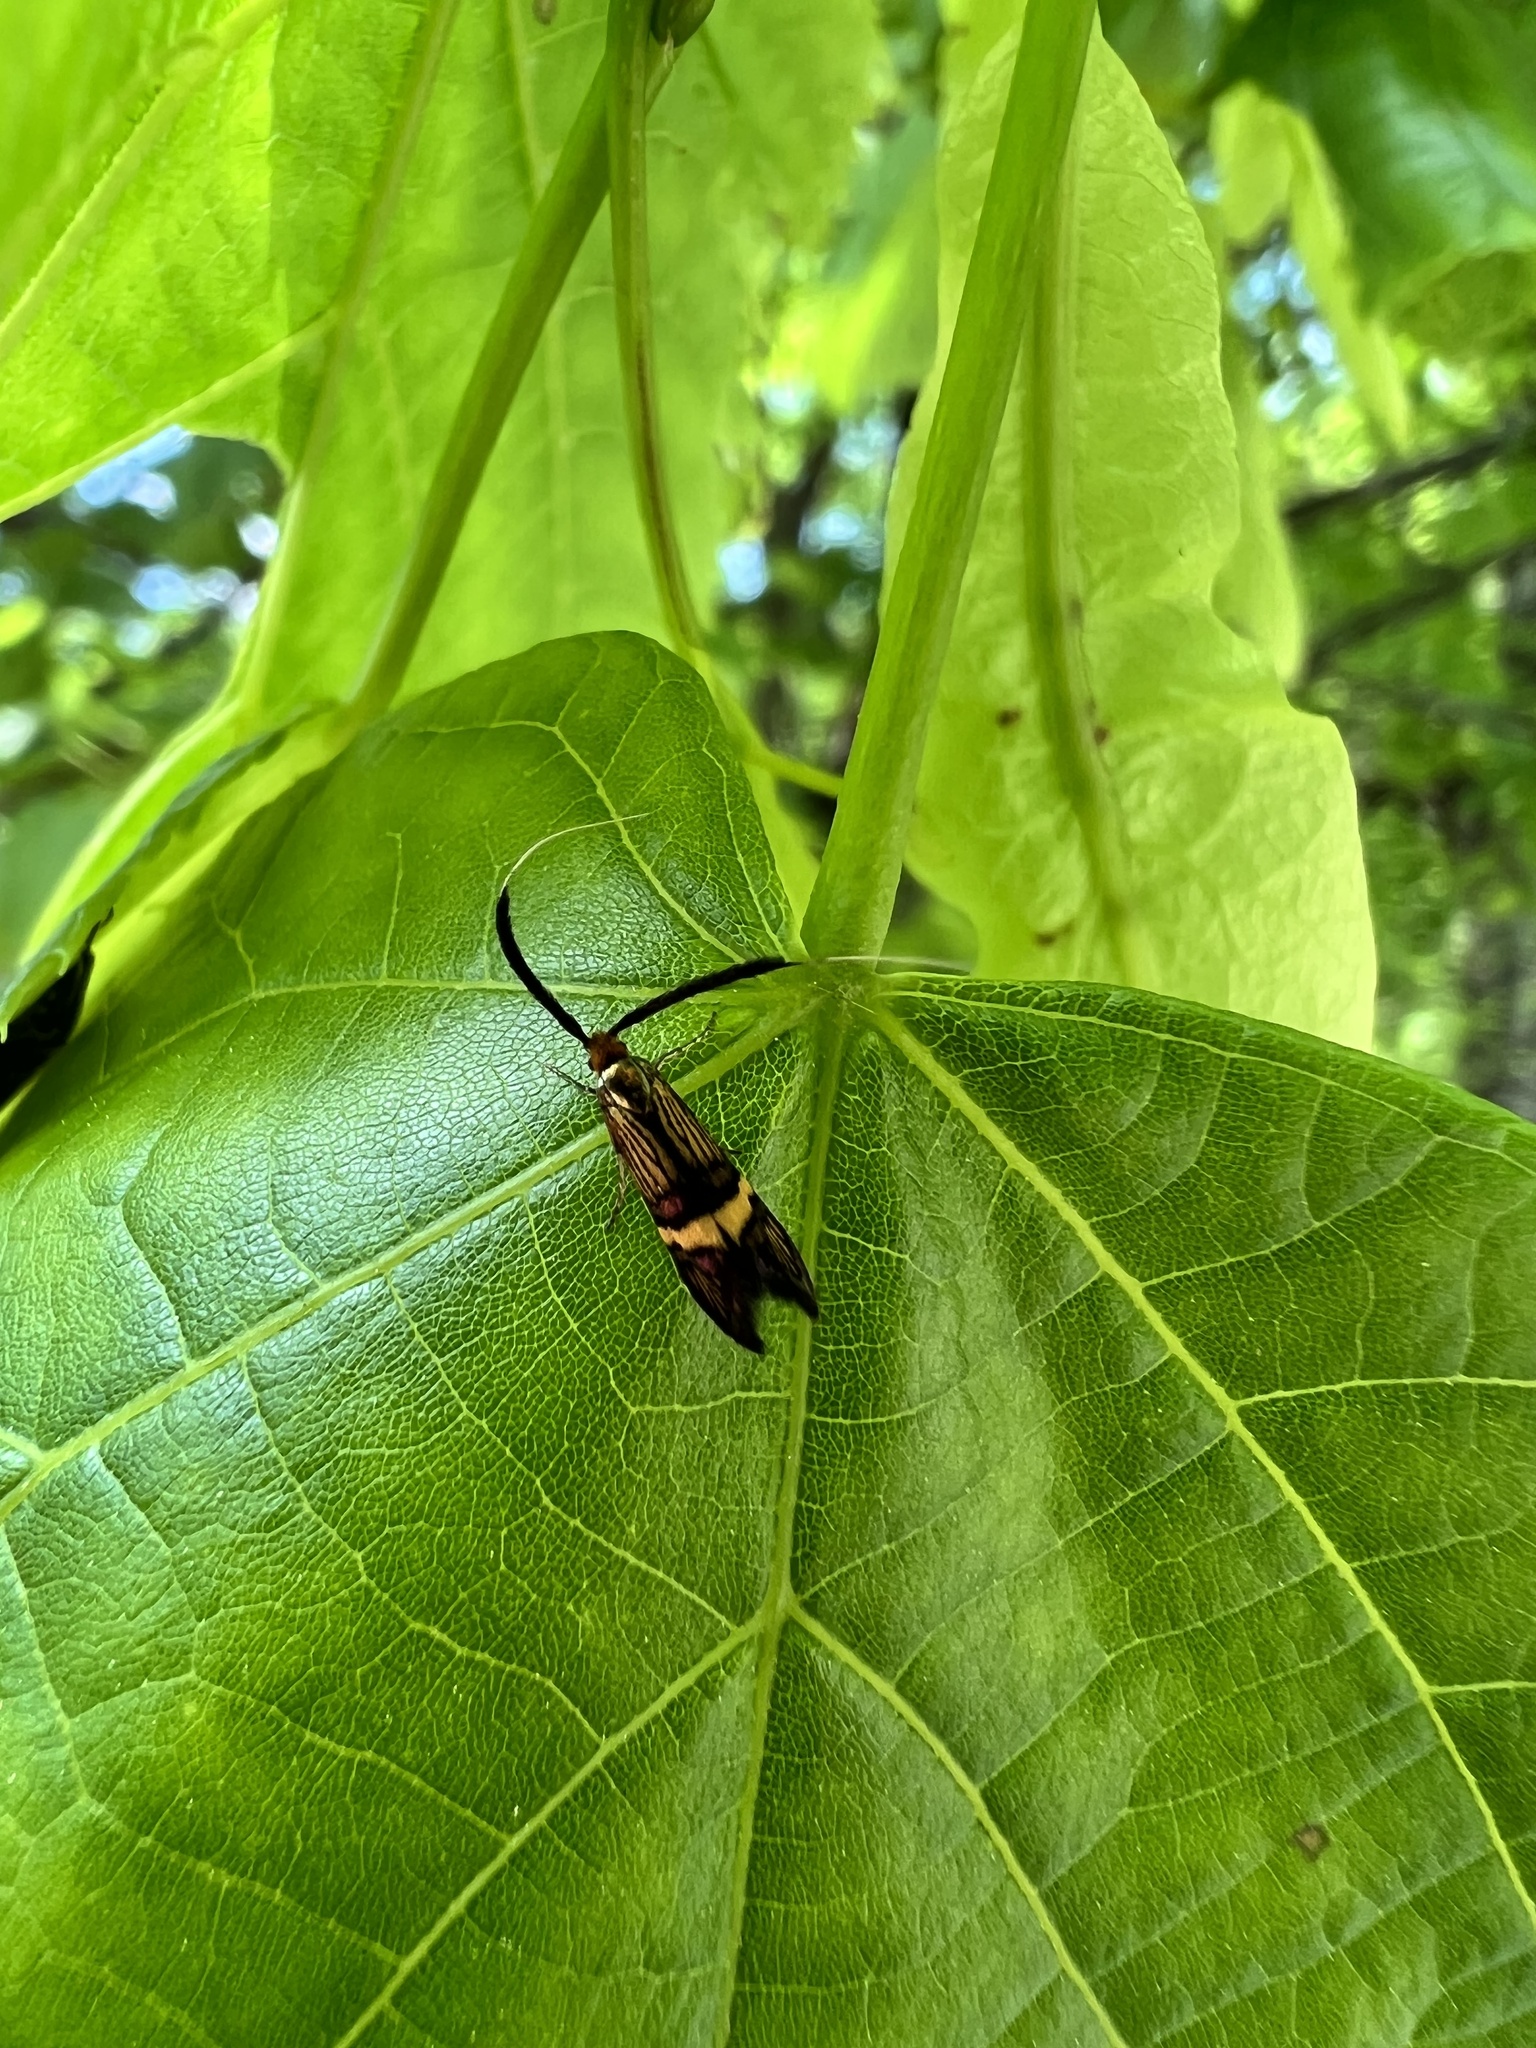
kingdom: Animalia
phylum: Arthropoda
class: Insecta
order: Lepidoptera
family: Adelidae
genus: Adela
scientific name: Adela croesella
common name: Small barred long-horn
